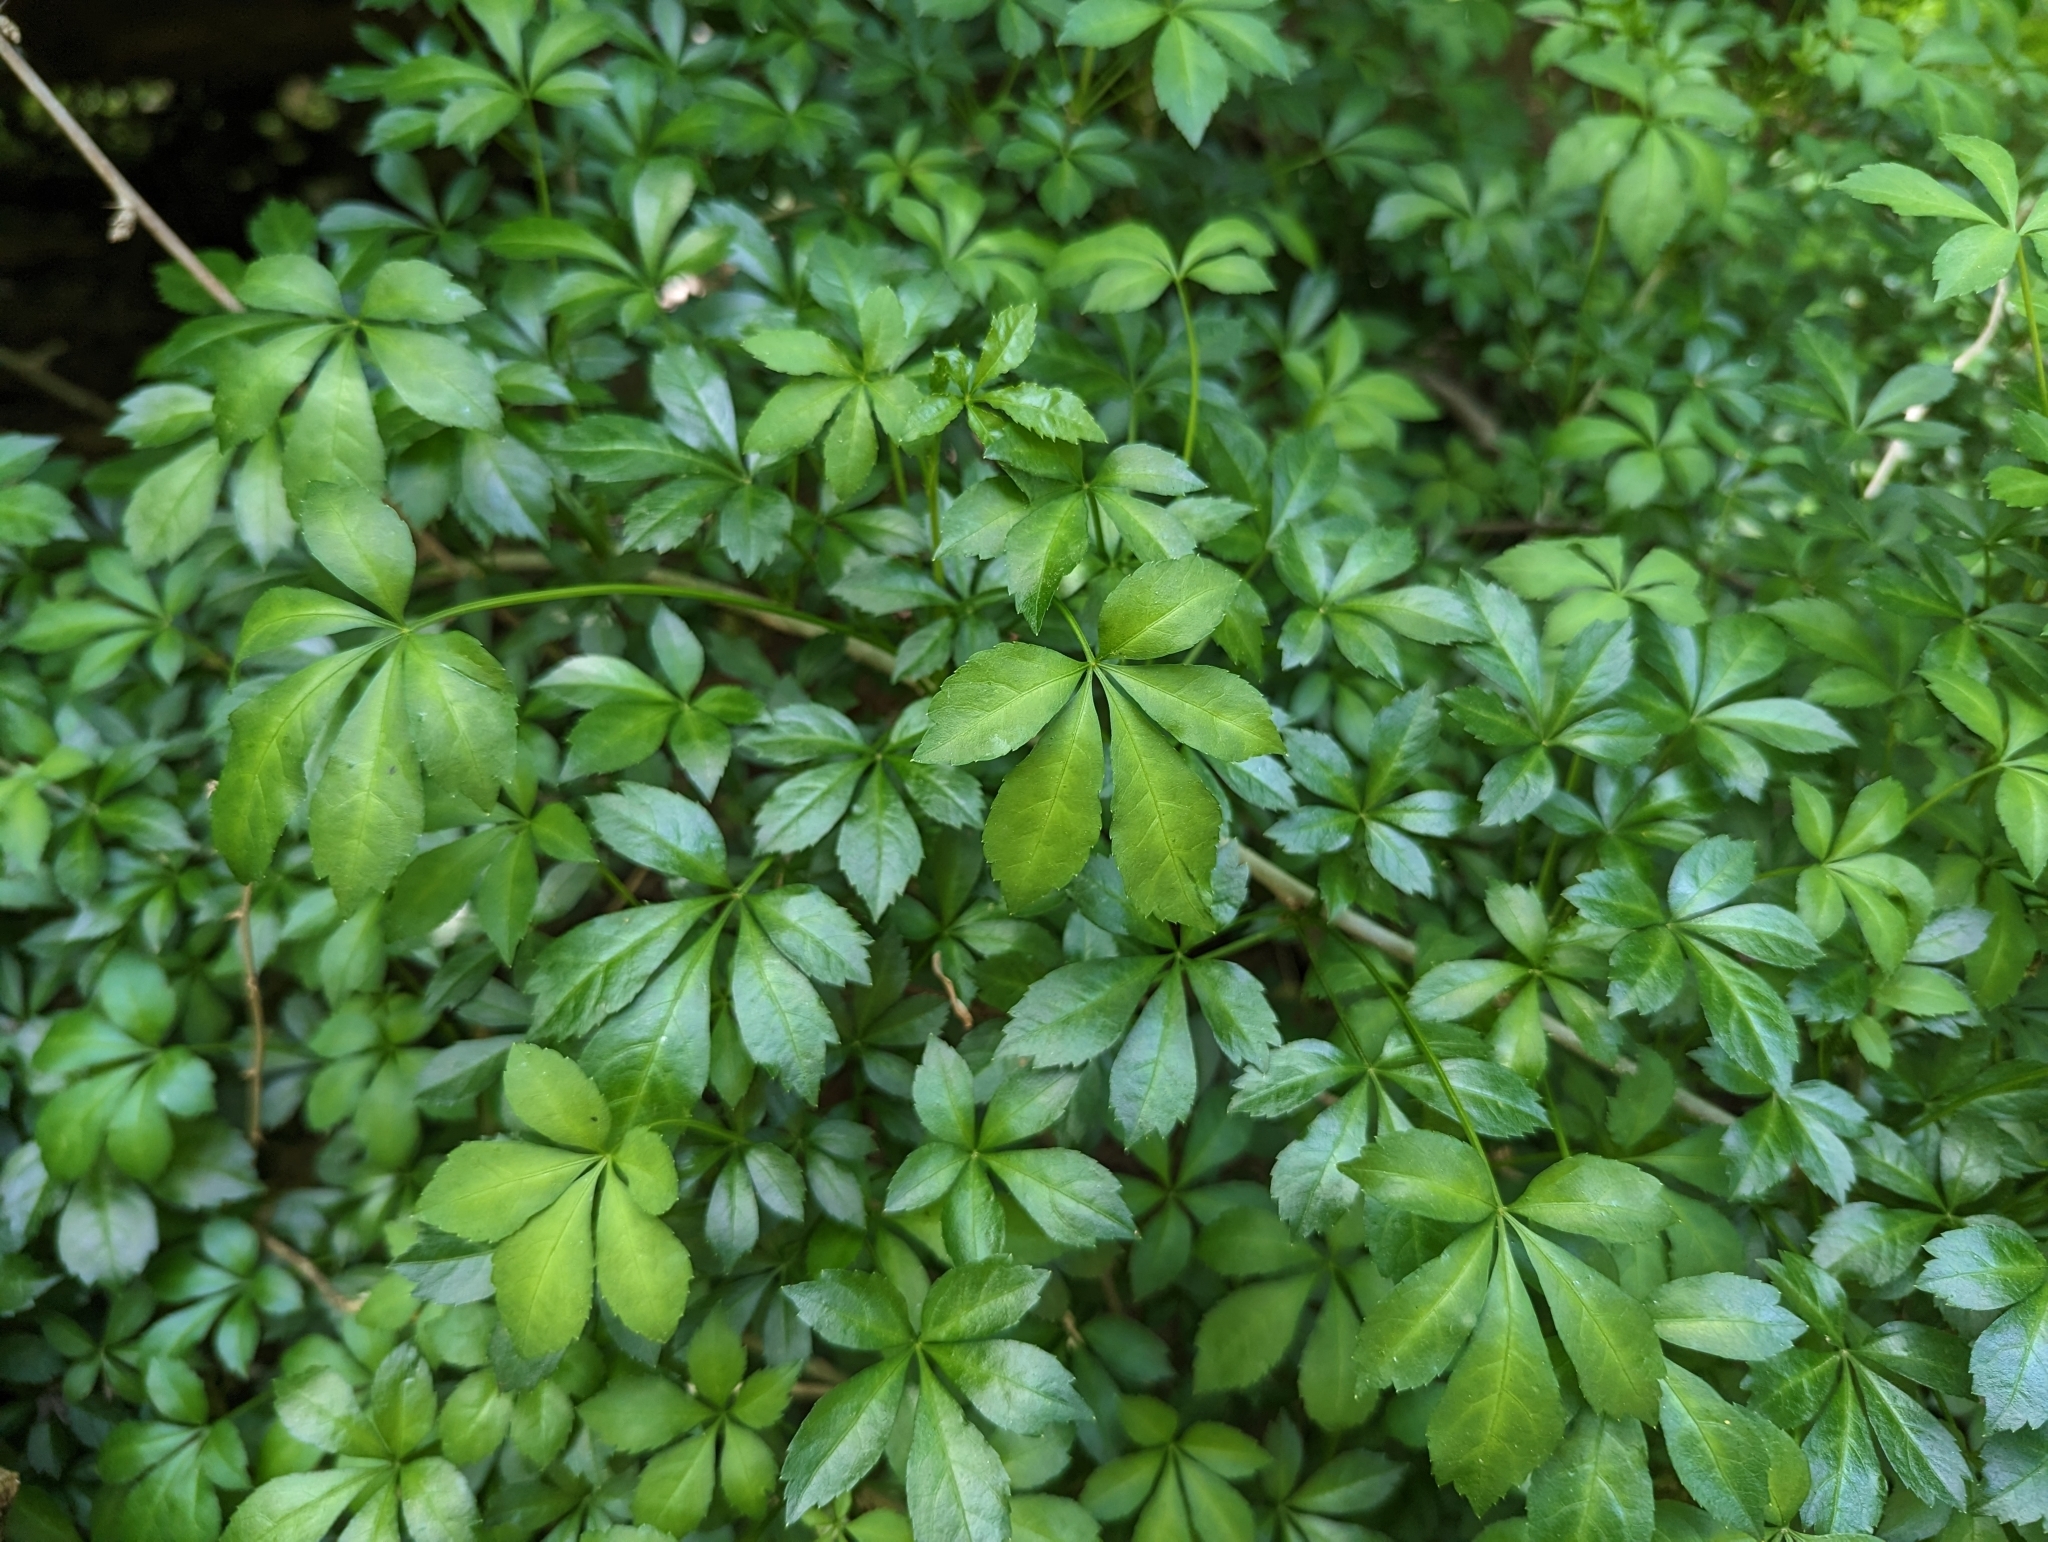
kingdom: Plantae
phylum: Tracheophyta
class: Magnoliopsida
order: Apiales
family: Araliaceae
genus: Eleutherococcus
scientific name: Eleutherococcus sieboldianus
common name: Ginseng
